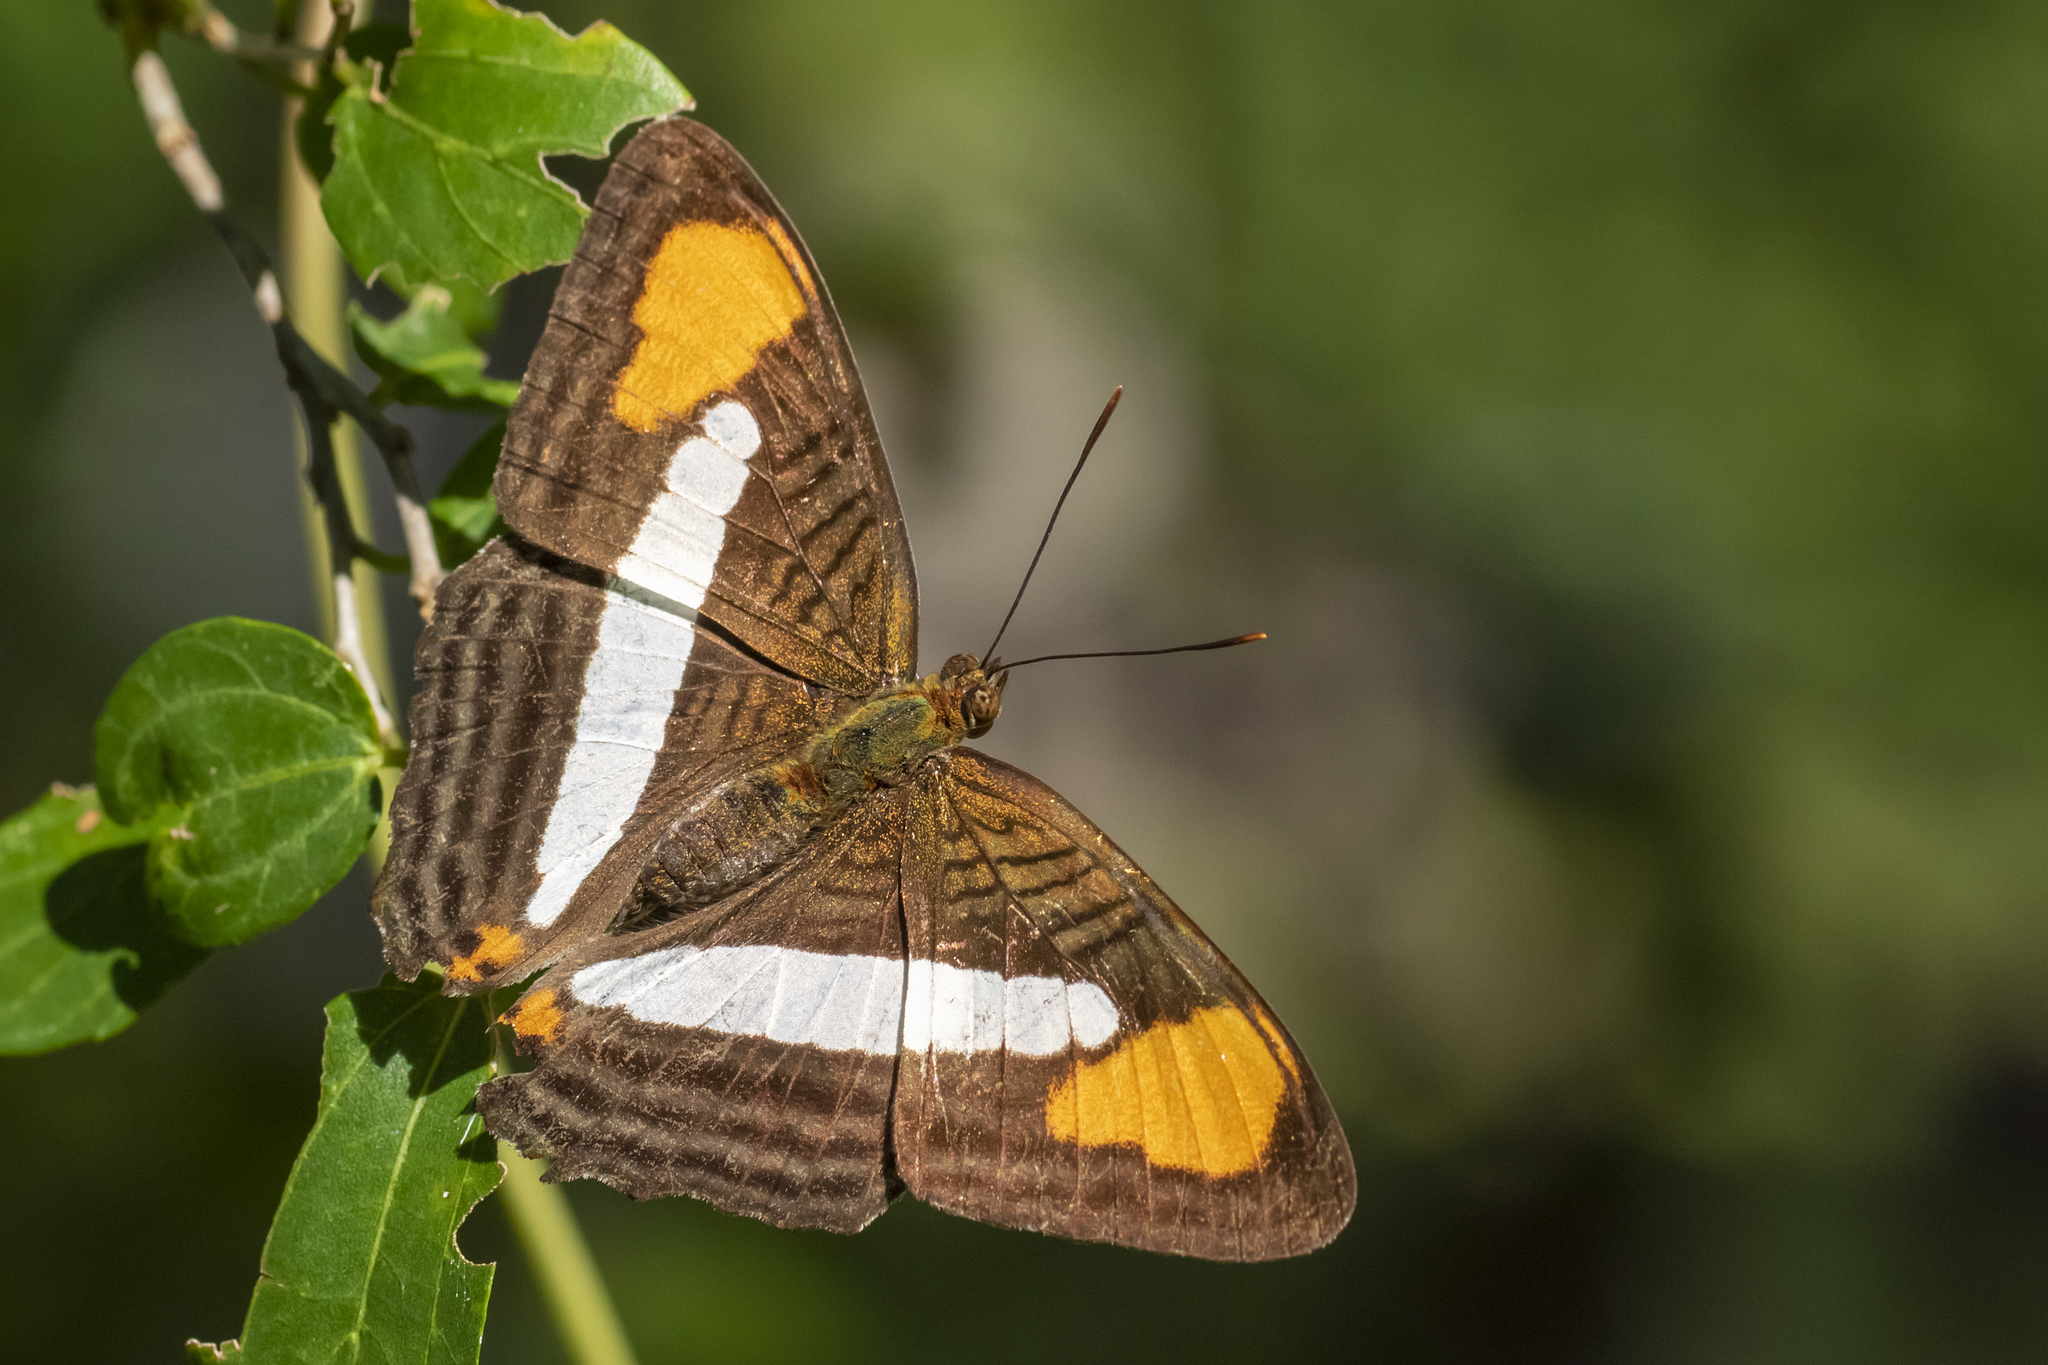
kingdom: Animalia
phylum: Arthropoda
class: Insecta
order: Lepidoptera
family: Nymphalidae
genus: Limenitis
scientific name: Limenitis thessalia
